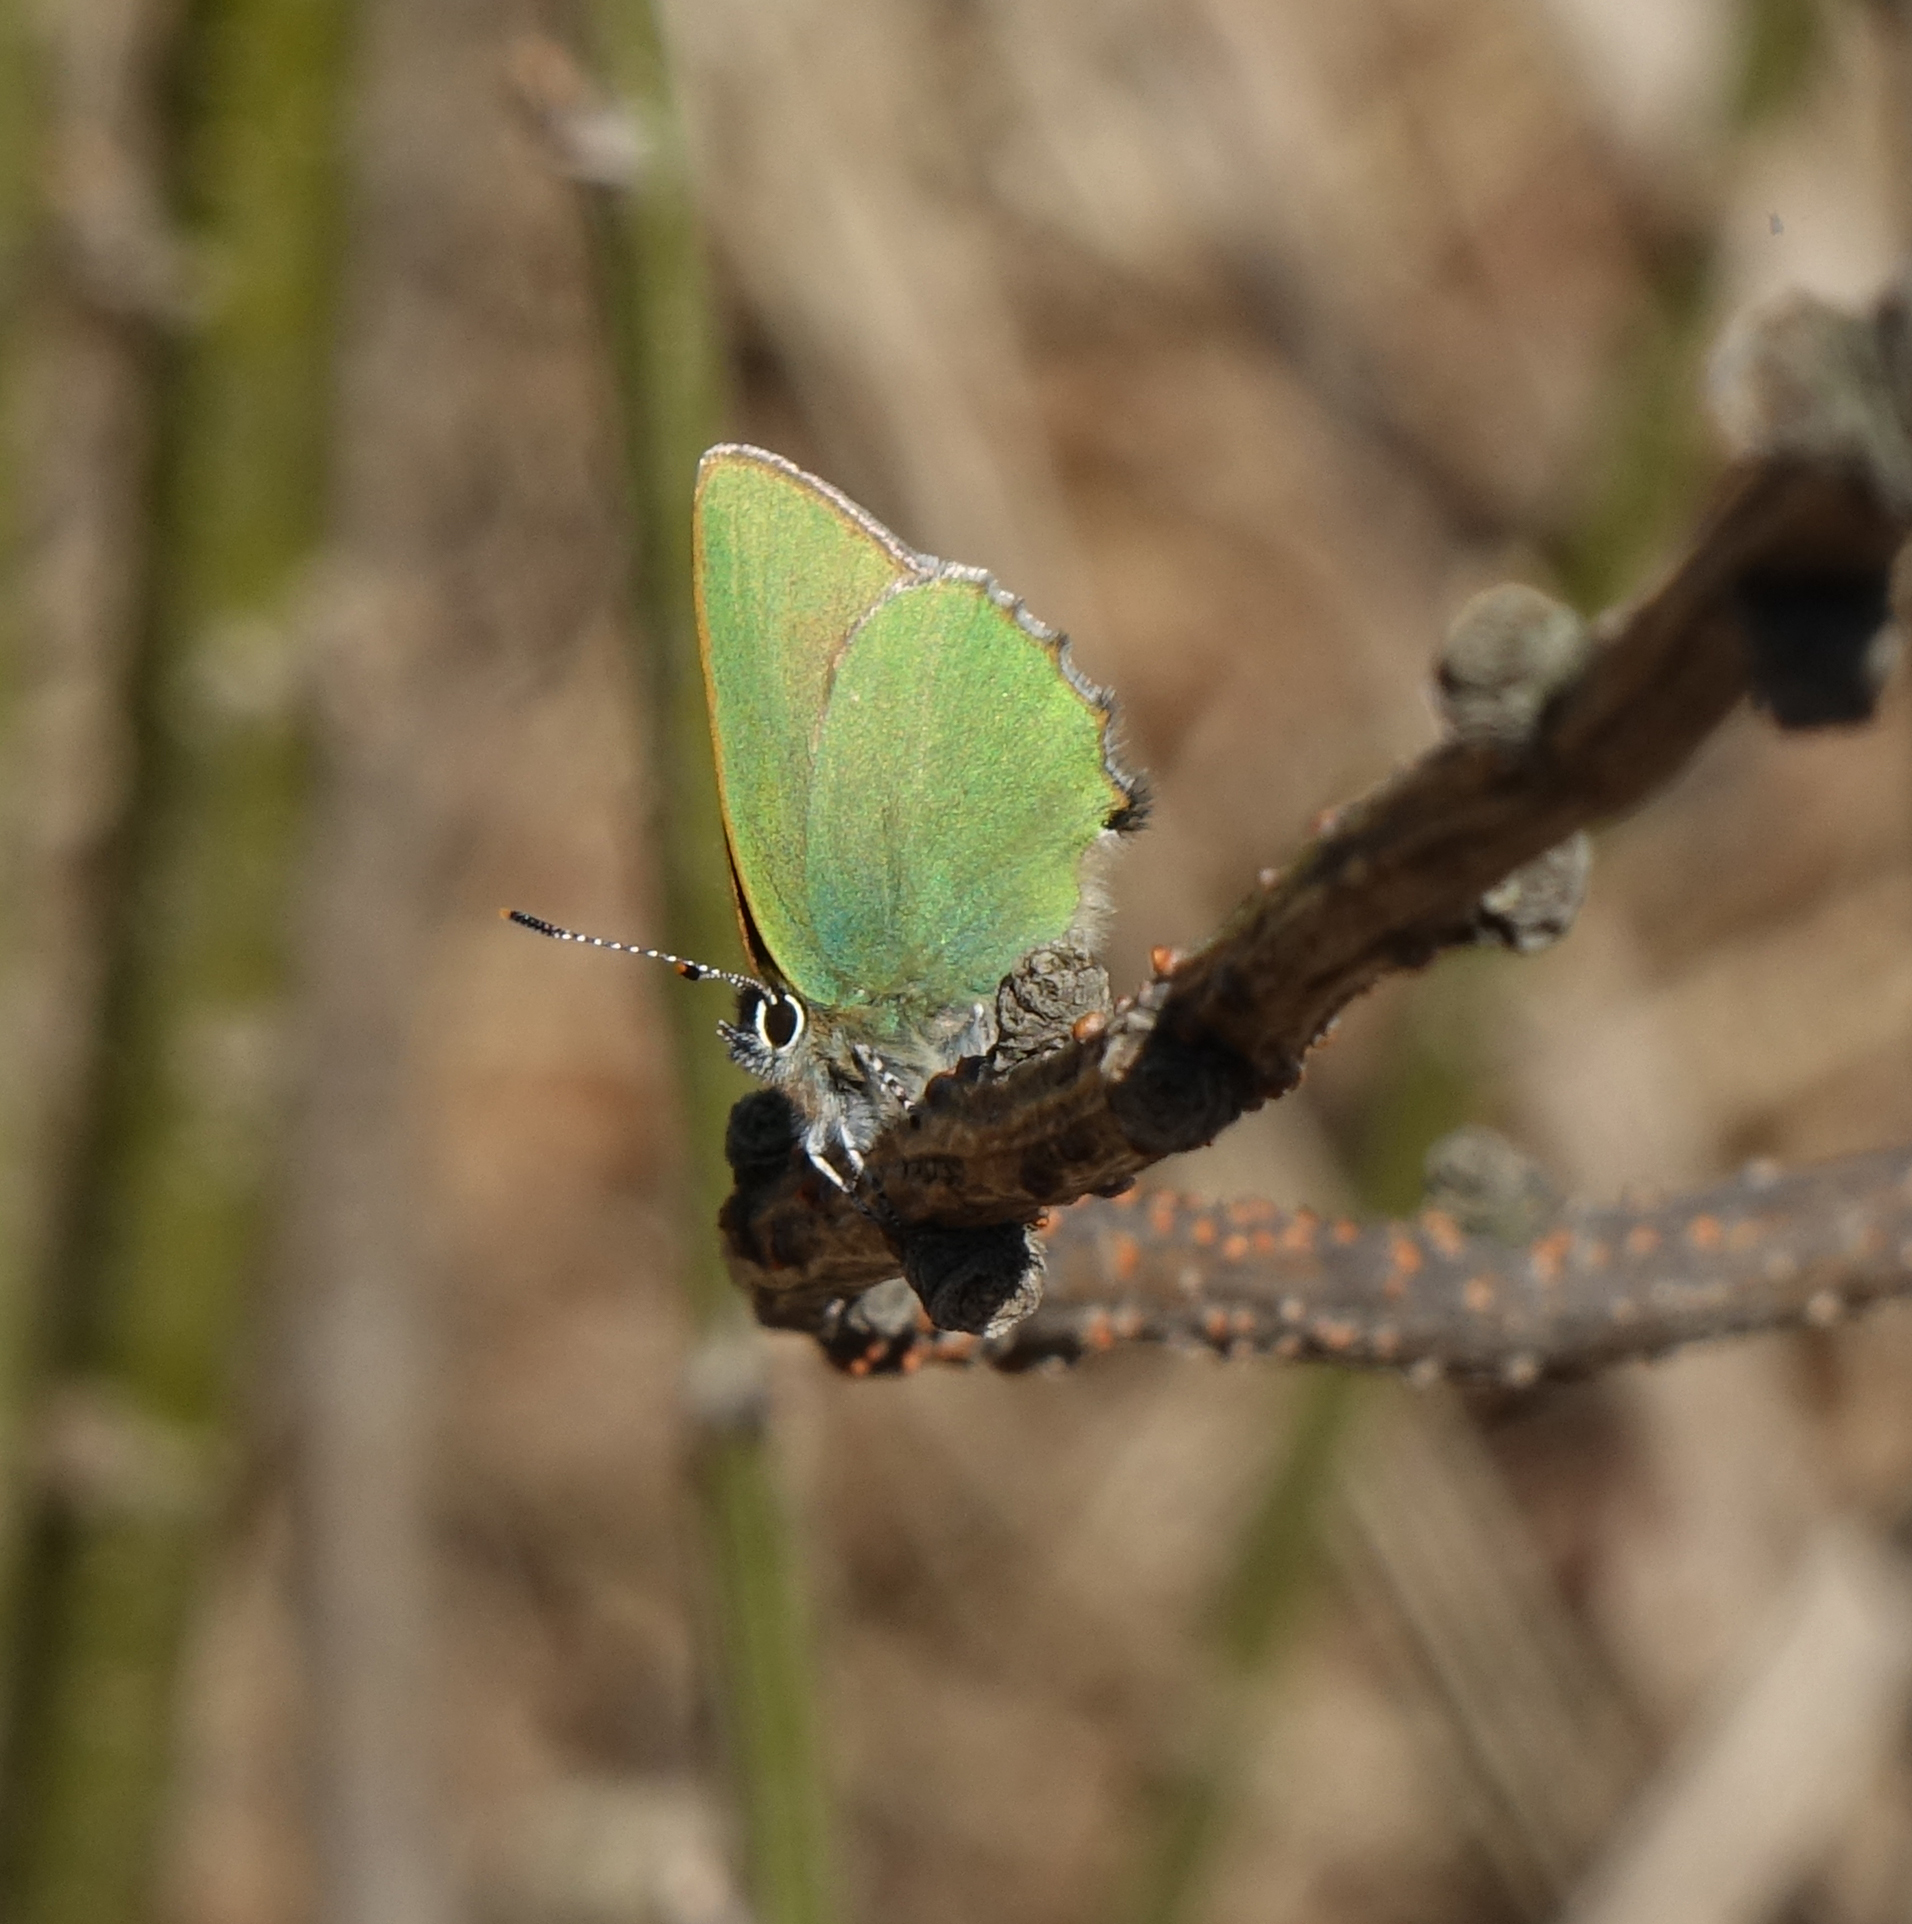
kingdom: Animalia
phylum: Arthropoda
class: Insecta
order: Lepidoptera
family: Lycaenidae
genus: Callophrys
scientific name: Callophrys rubi
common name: Green hairstreak
